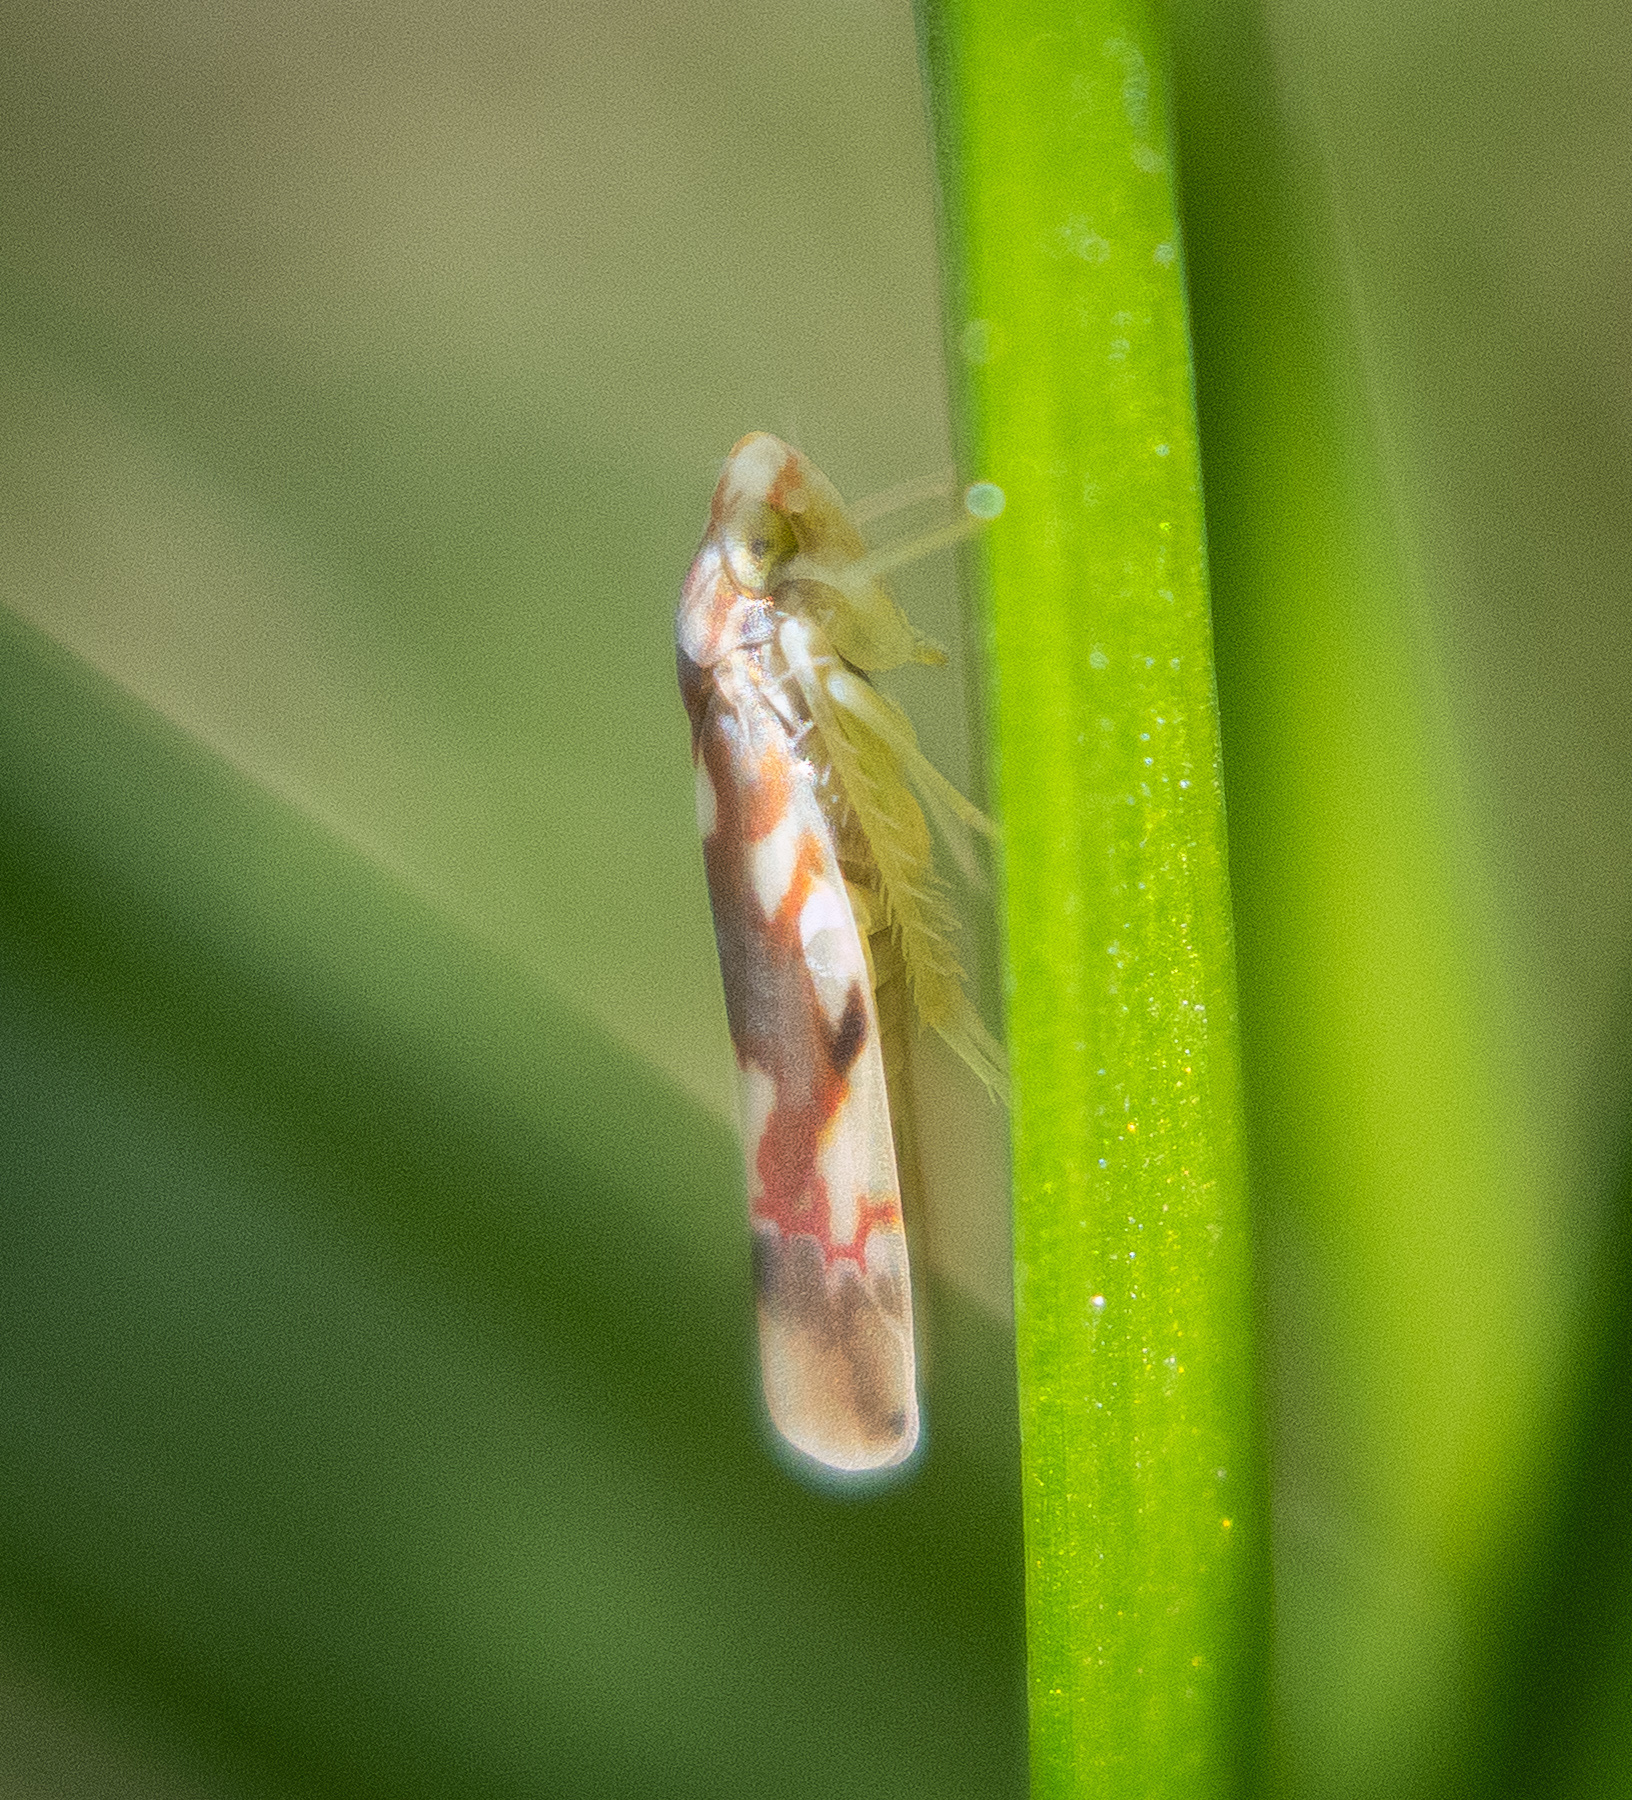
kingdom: Animalia
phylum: Arthropoda
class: Insecta
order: Hemiptera
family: Cicadellidae
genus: Erythroneura
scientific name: Erythroneura elegans
